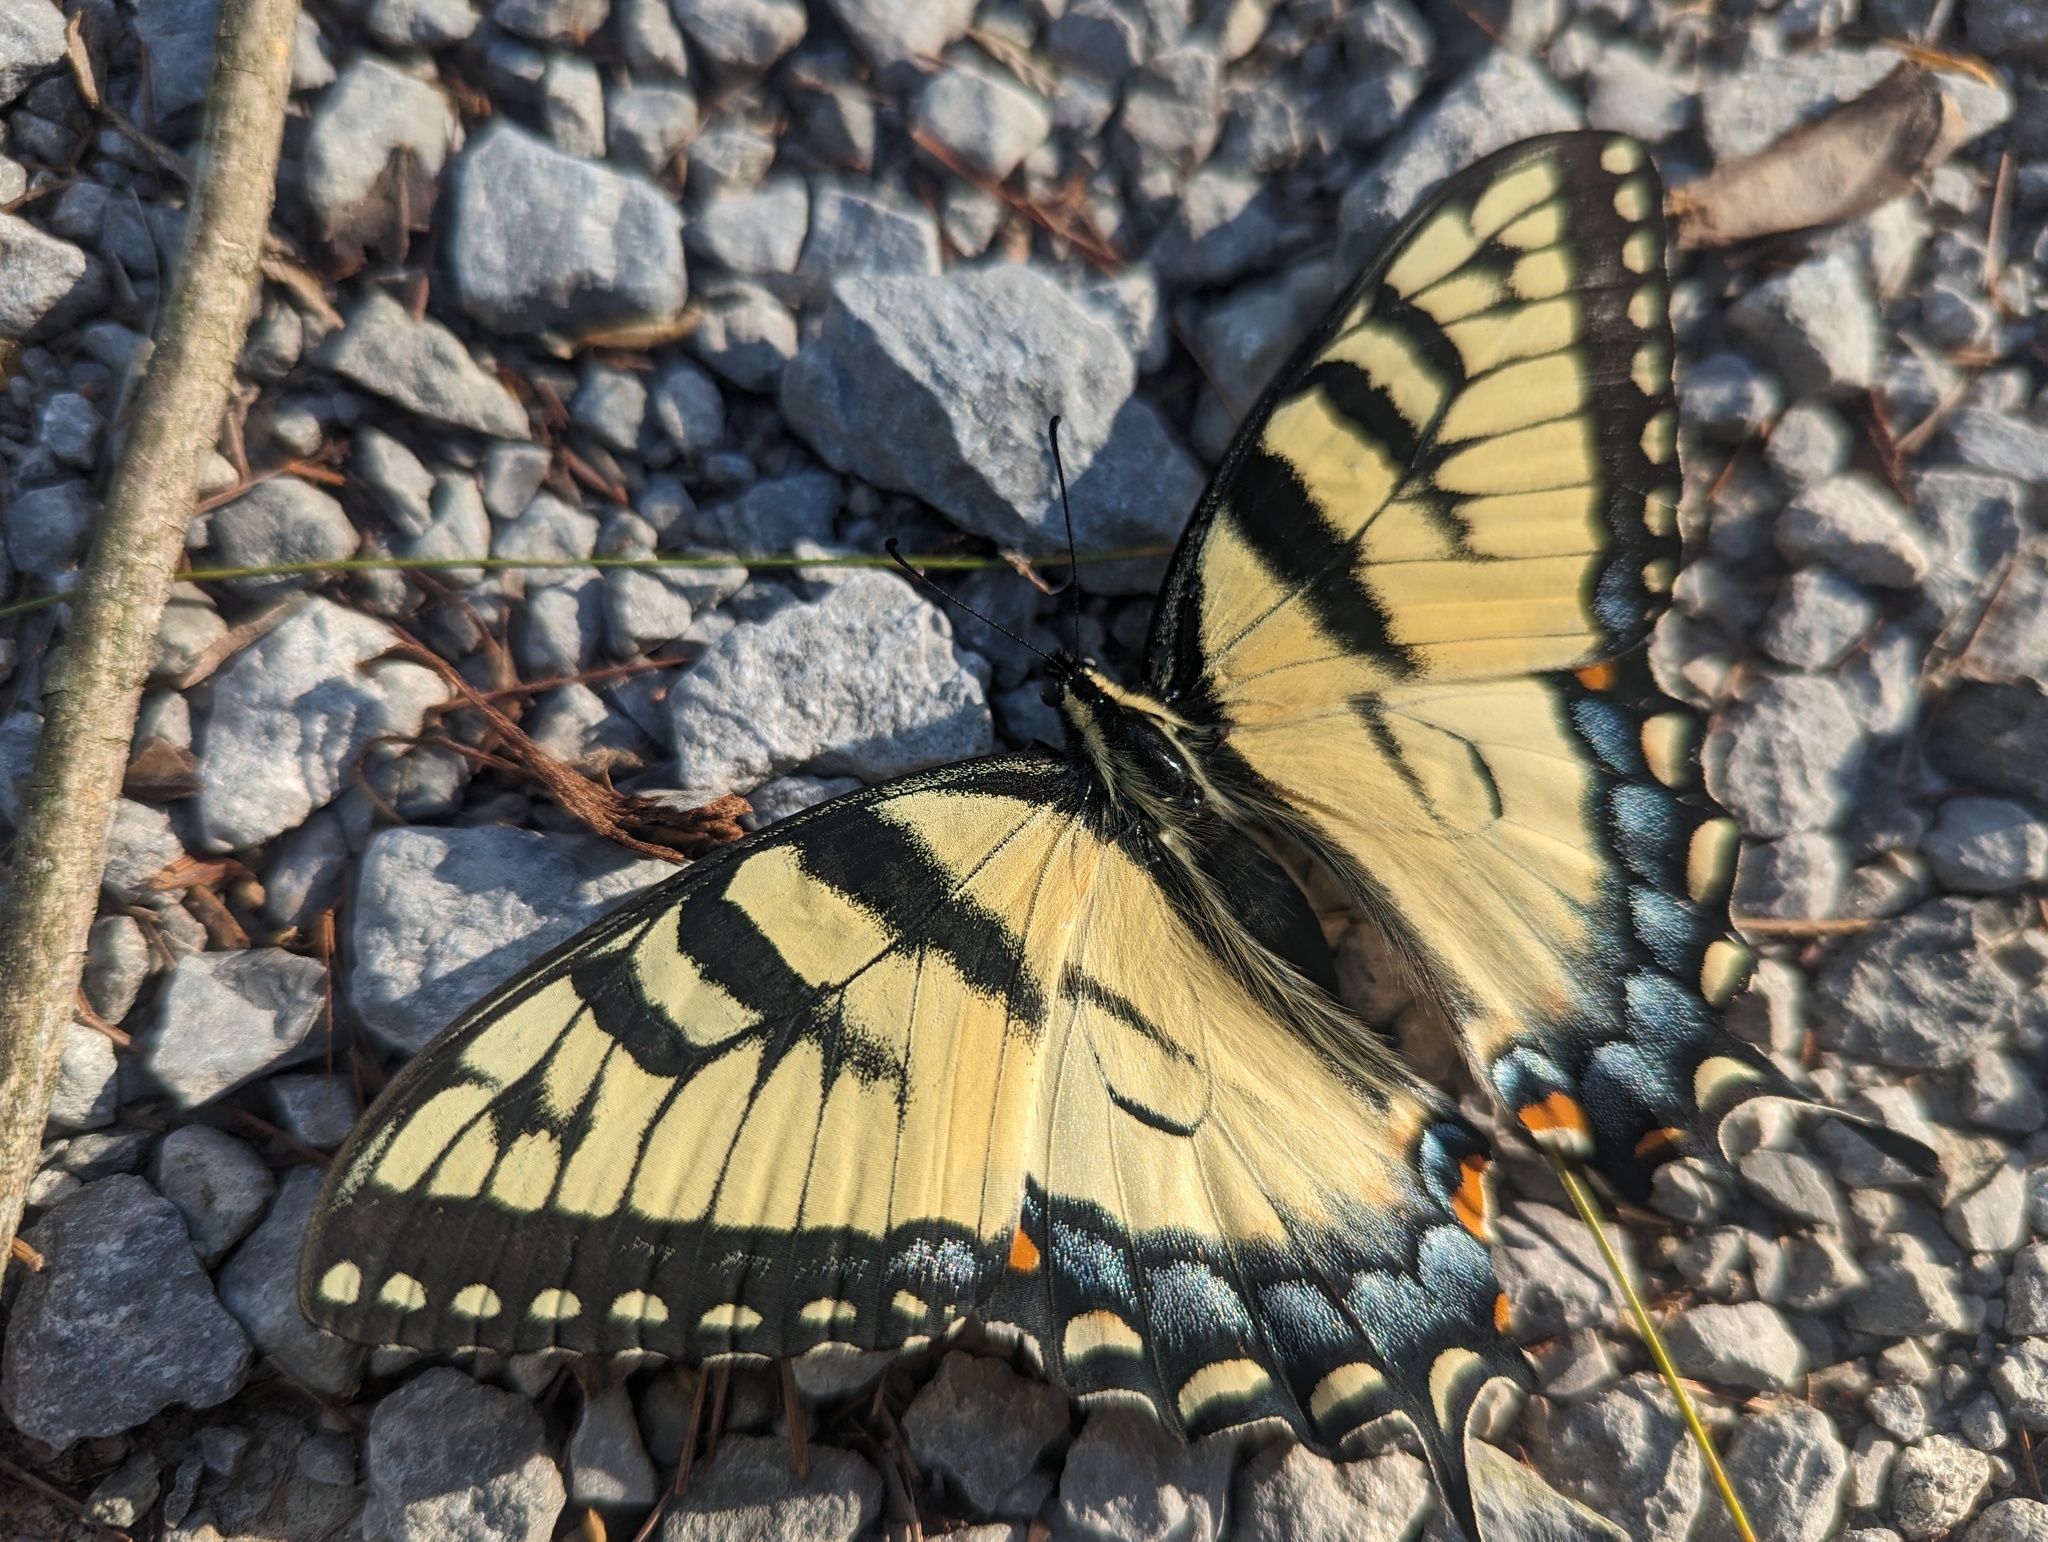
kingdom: Animalia
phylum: Arthropoda
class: Insecta
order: Lepidoptera
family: Papilionidae
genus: Papilio
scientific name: Papilio glaucus
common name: Tiger swallowtail
